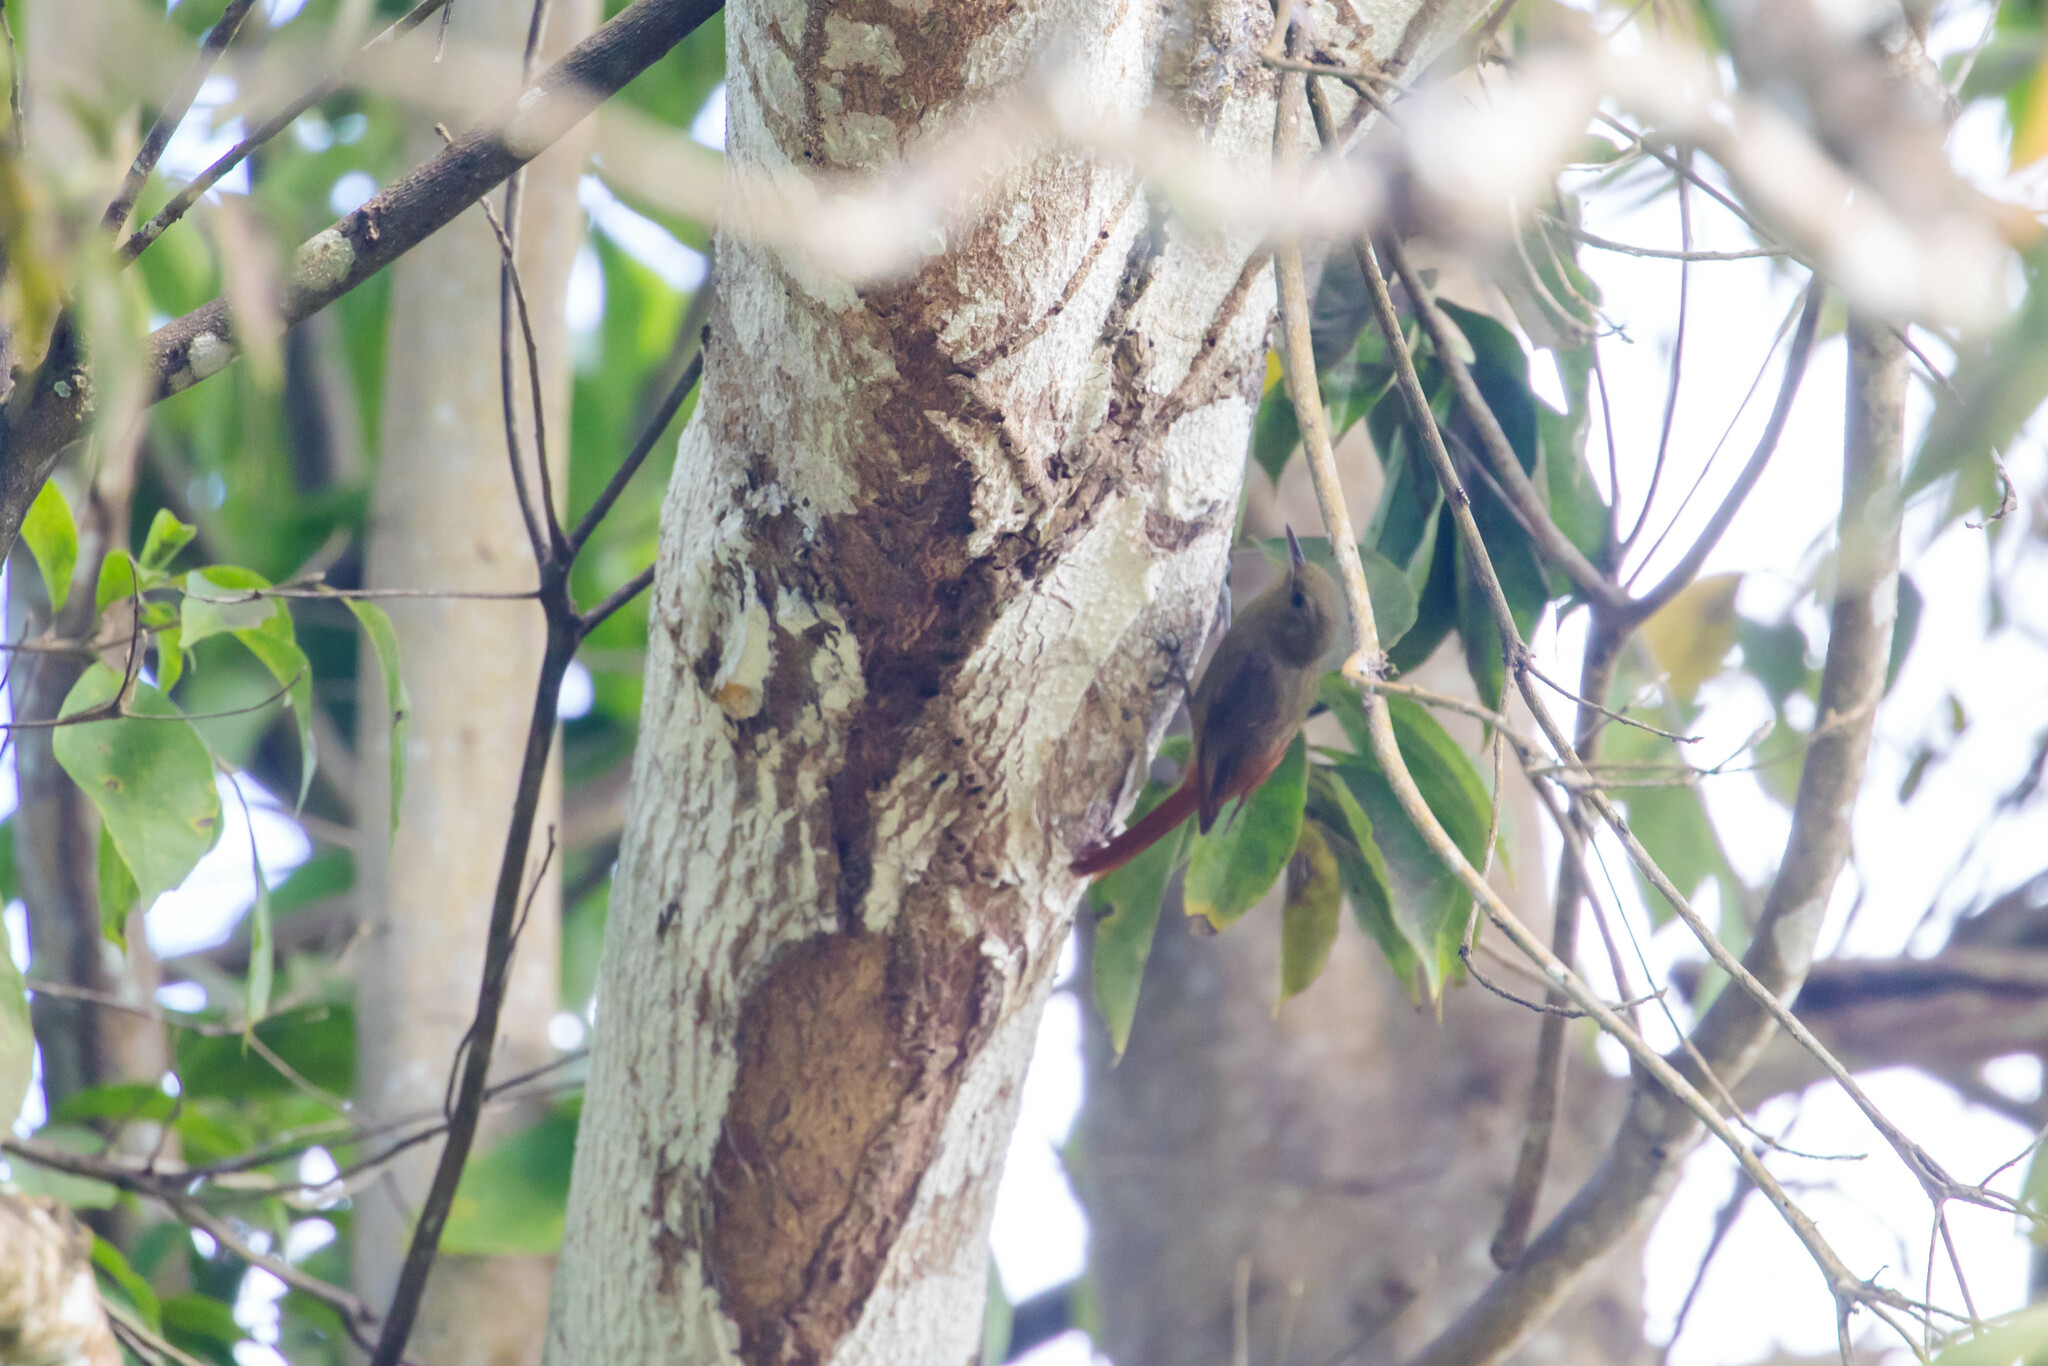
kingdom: Animalia
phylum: Chordata
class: Aves
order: Passeriformes
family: Furnariidae
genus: Sittasomus
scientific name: Sittasomus griseicapillus
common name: Olivaceous woodcreeper
